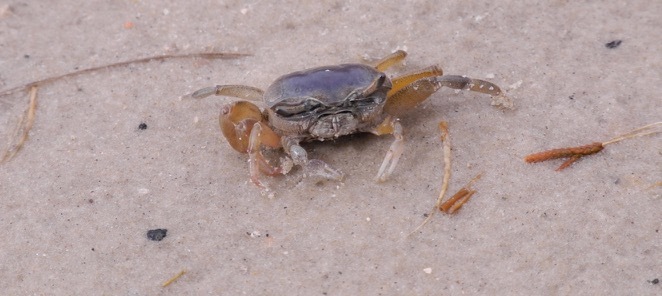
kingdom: Animalia
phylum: Arthropoda
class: Malacostraca
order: Decapoda
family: Ocypodidae
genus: Leptuca
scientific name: Leptuca pugilator
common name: Atlantic sand fiddler crab
